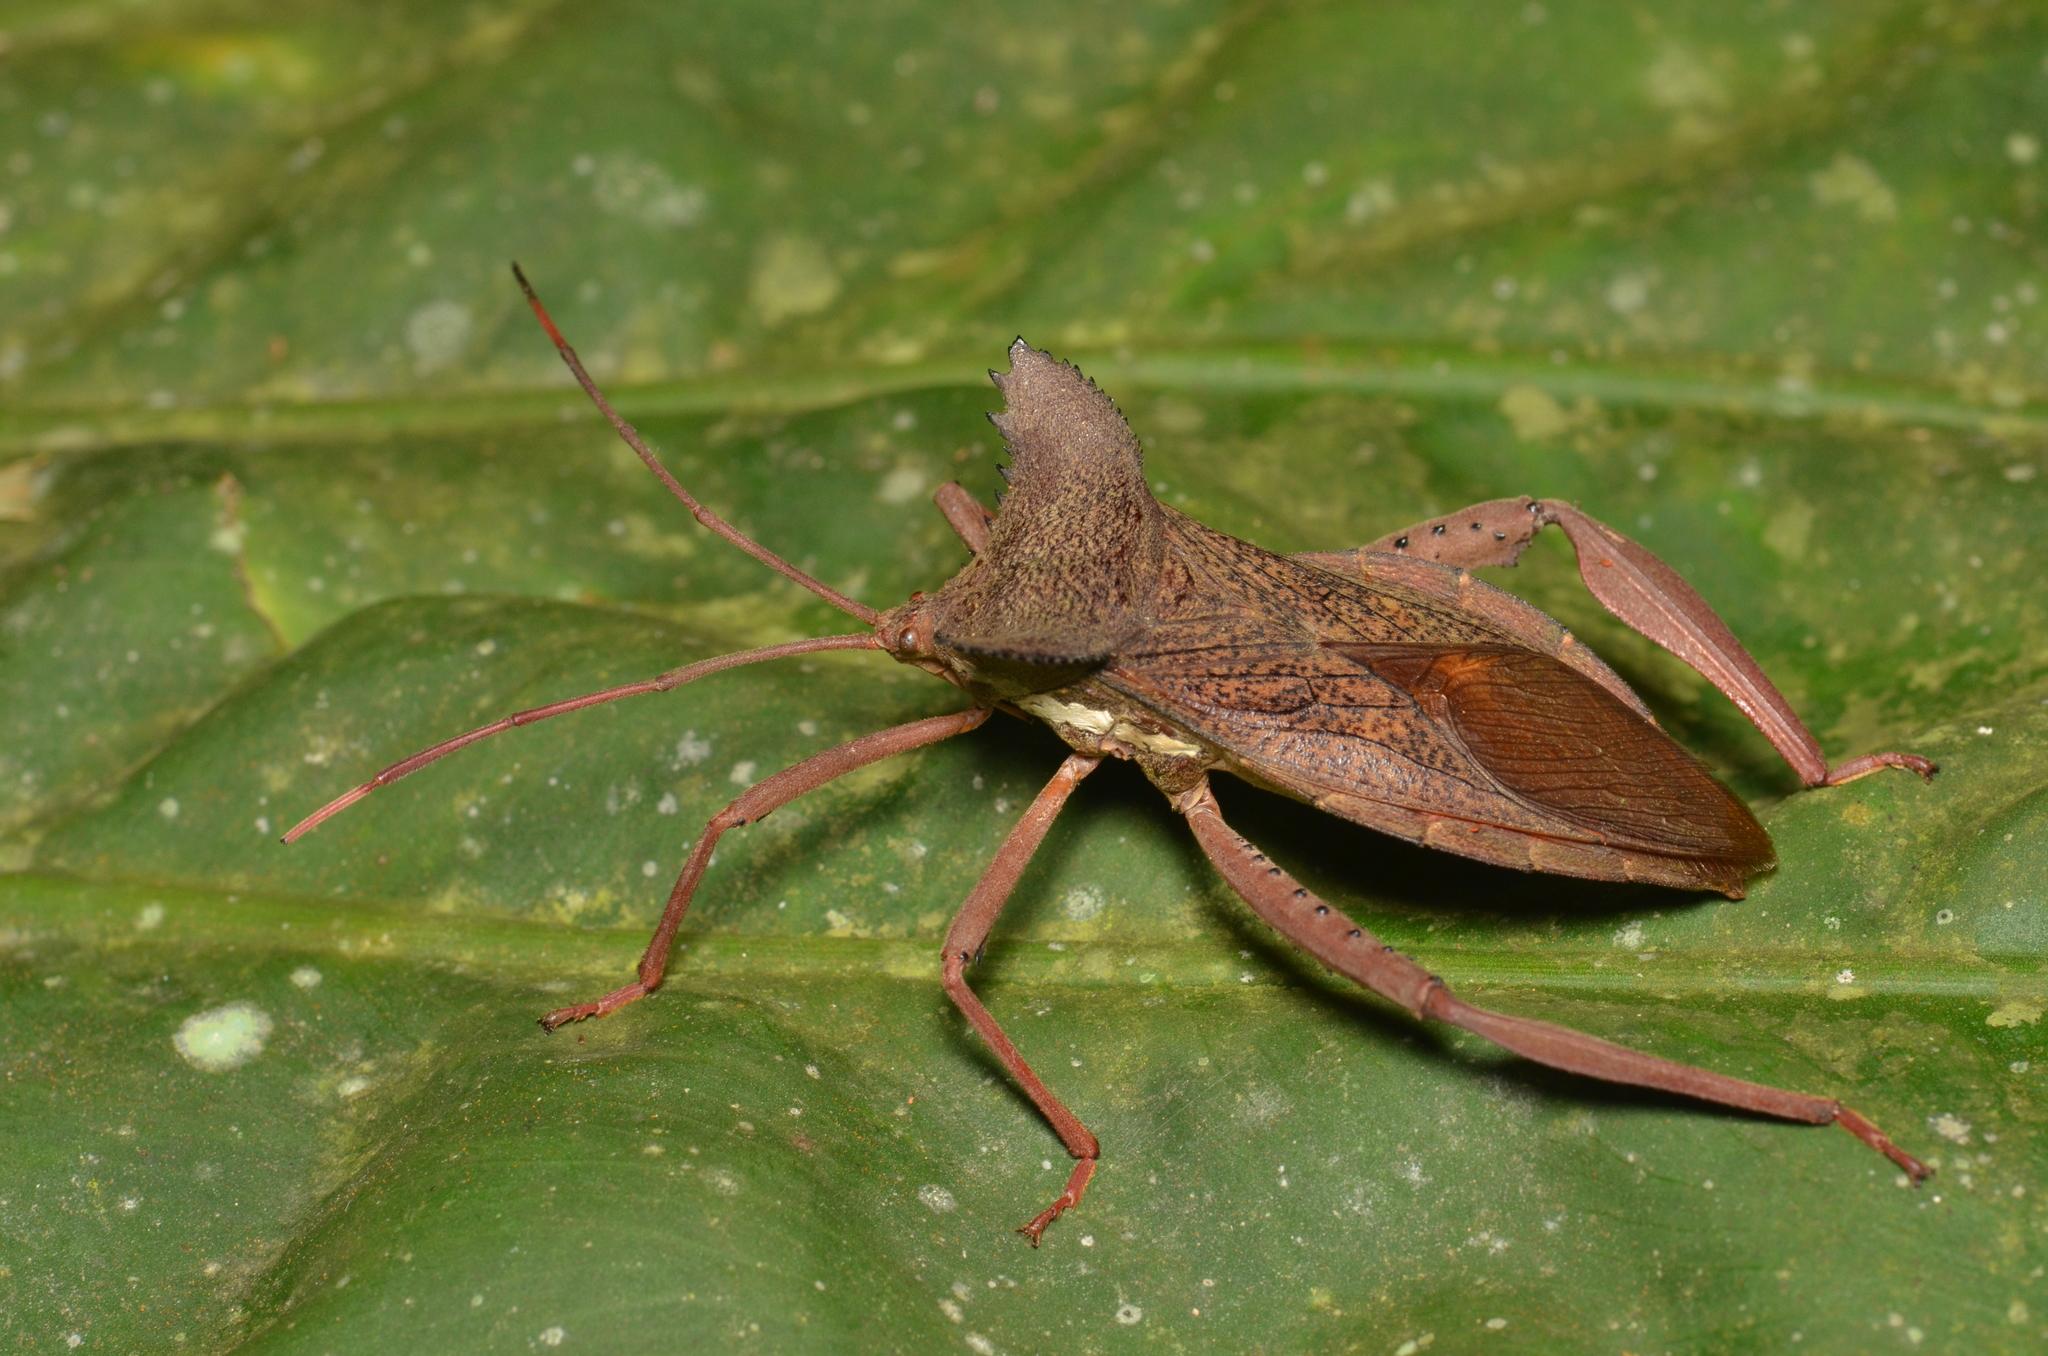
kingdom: Animalia
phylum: Arthropoda
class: Insecta
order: Hemiptera
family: Coreidae
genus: Prionolomia
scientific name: Prionolomia gigas
